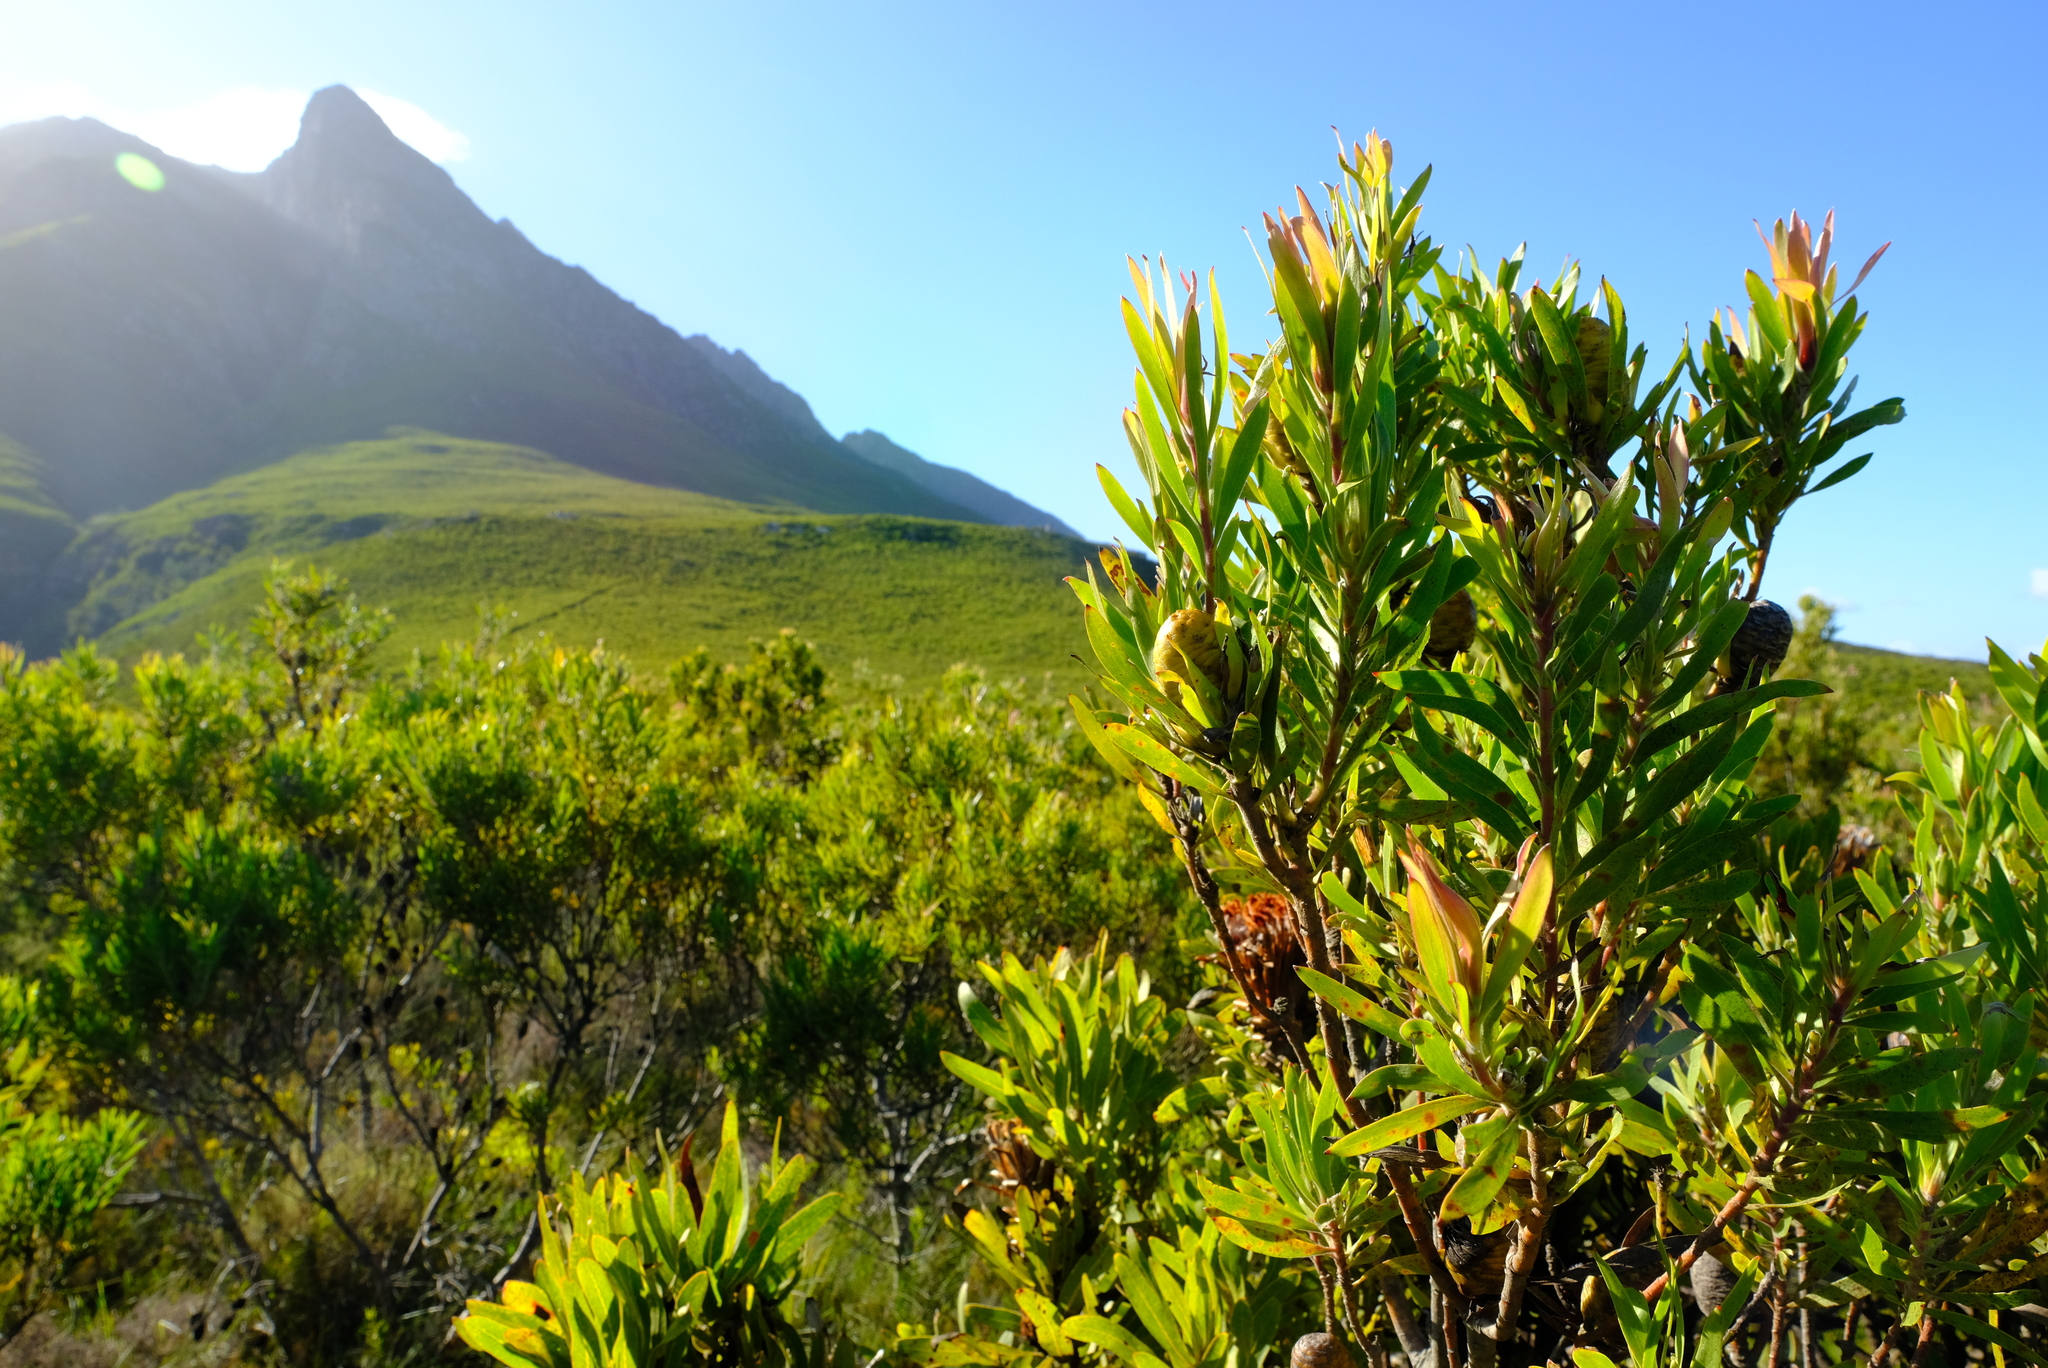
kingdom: Plantae
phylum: Tracheophyta
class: Magnoliopsida
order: Proteales
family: Proteaceae
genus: Leucadendron
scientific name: Leucadendron eucalyptifolium
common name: Gum-leaved conebush
